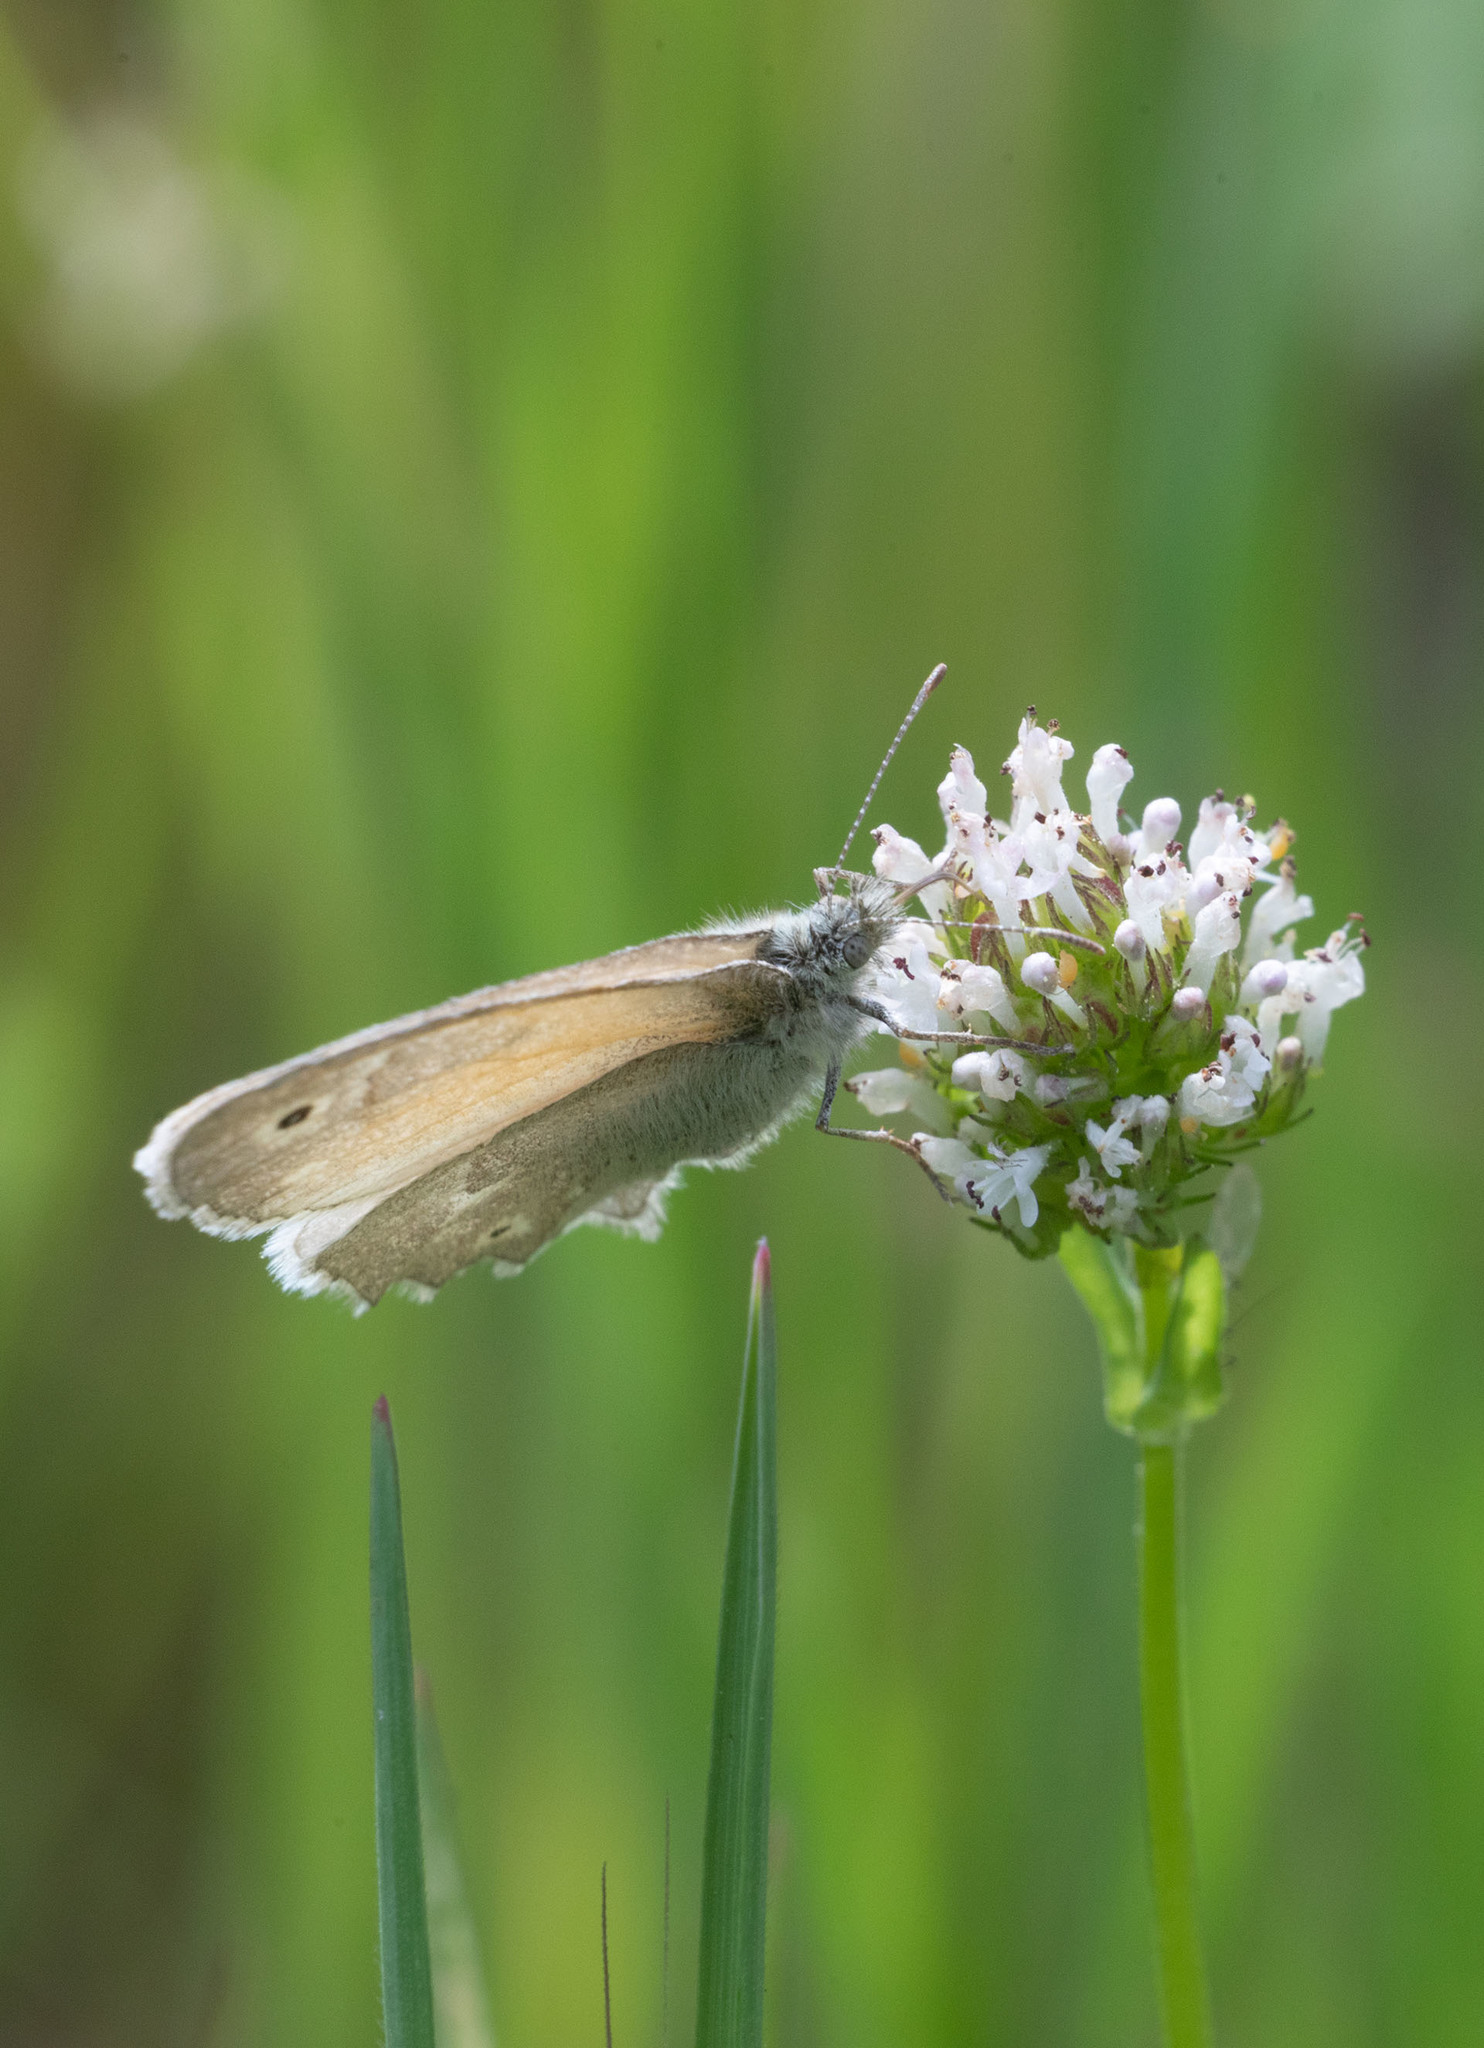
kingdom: Animalia
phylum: Arthropoda
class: Insecta
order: Lepidoptera
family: Nymphalidae
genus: Coenonympha
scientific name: Coenonympha california
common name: Common ringlet
